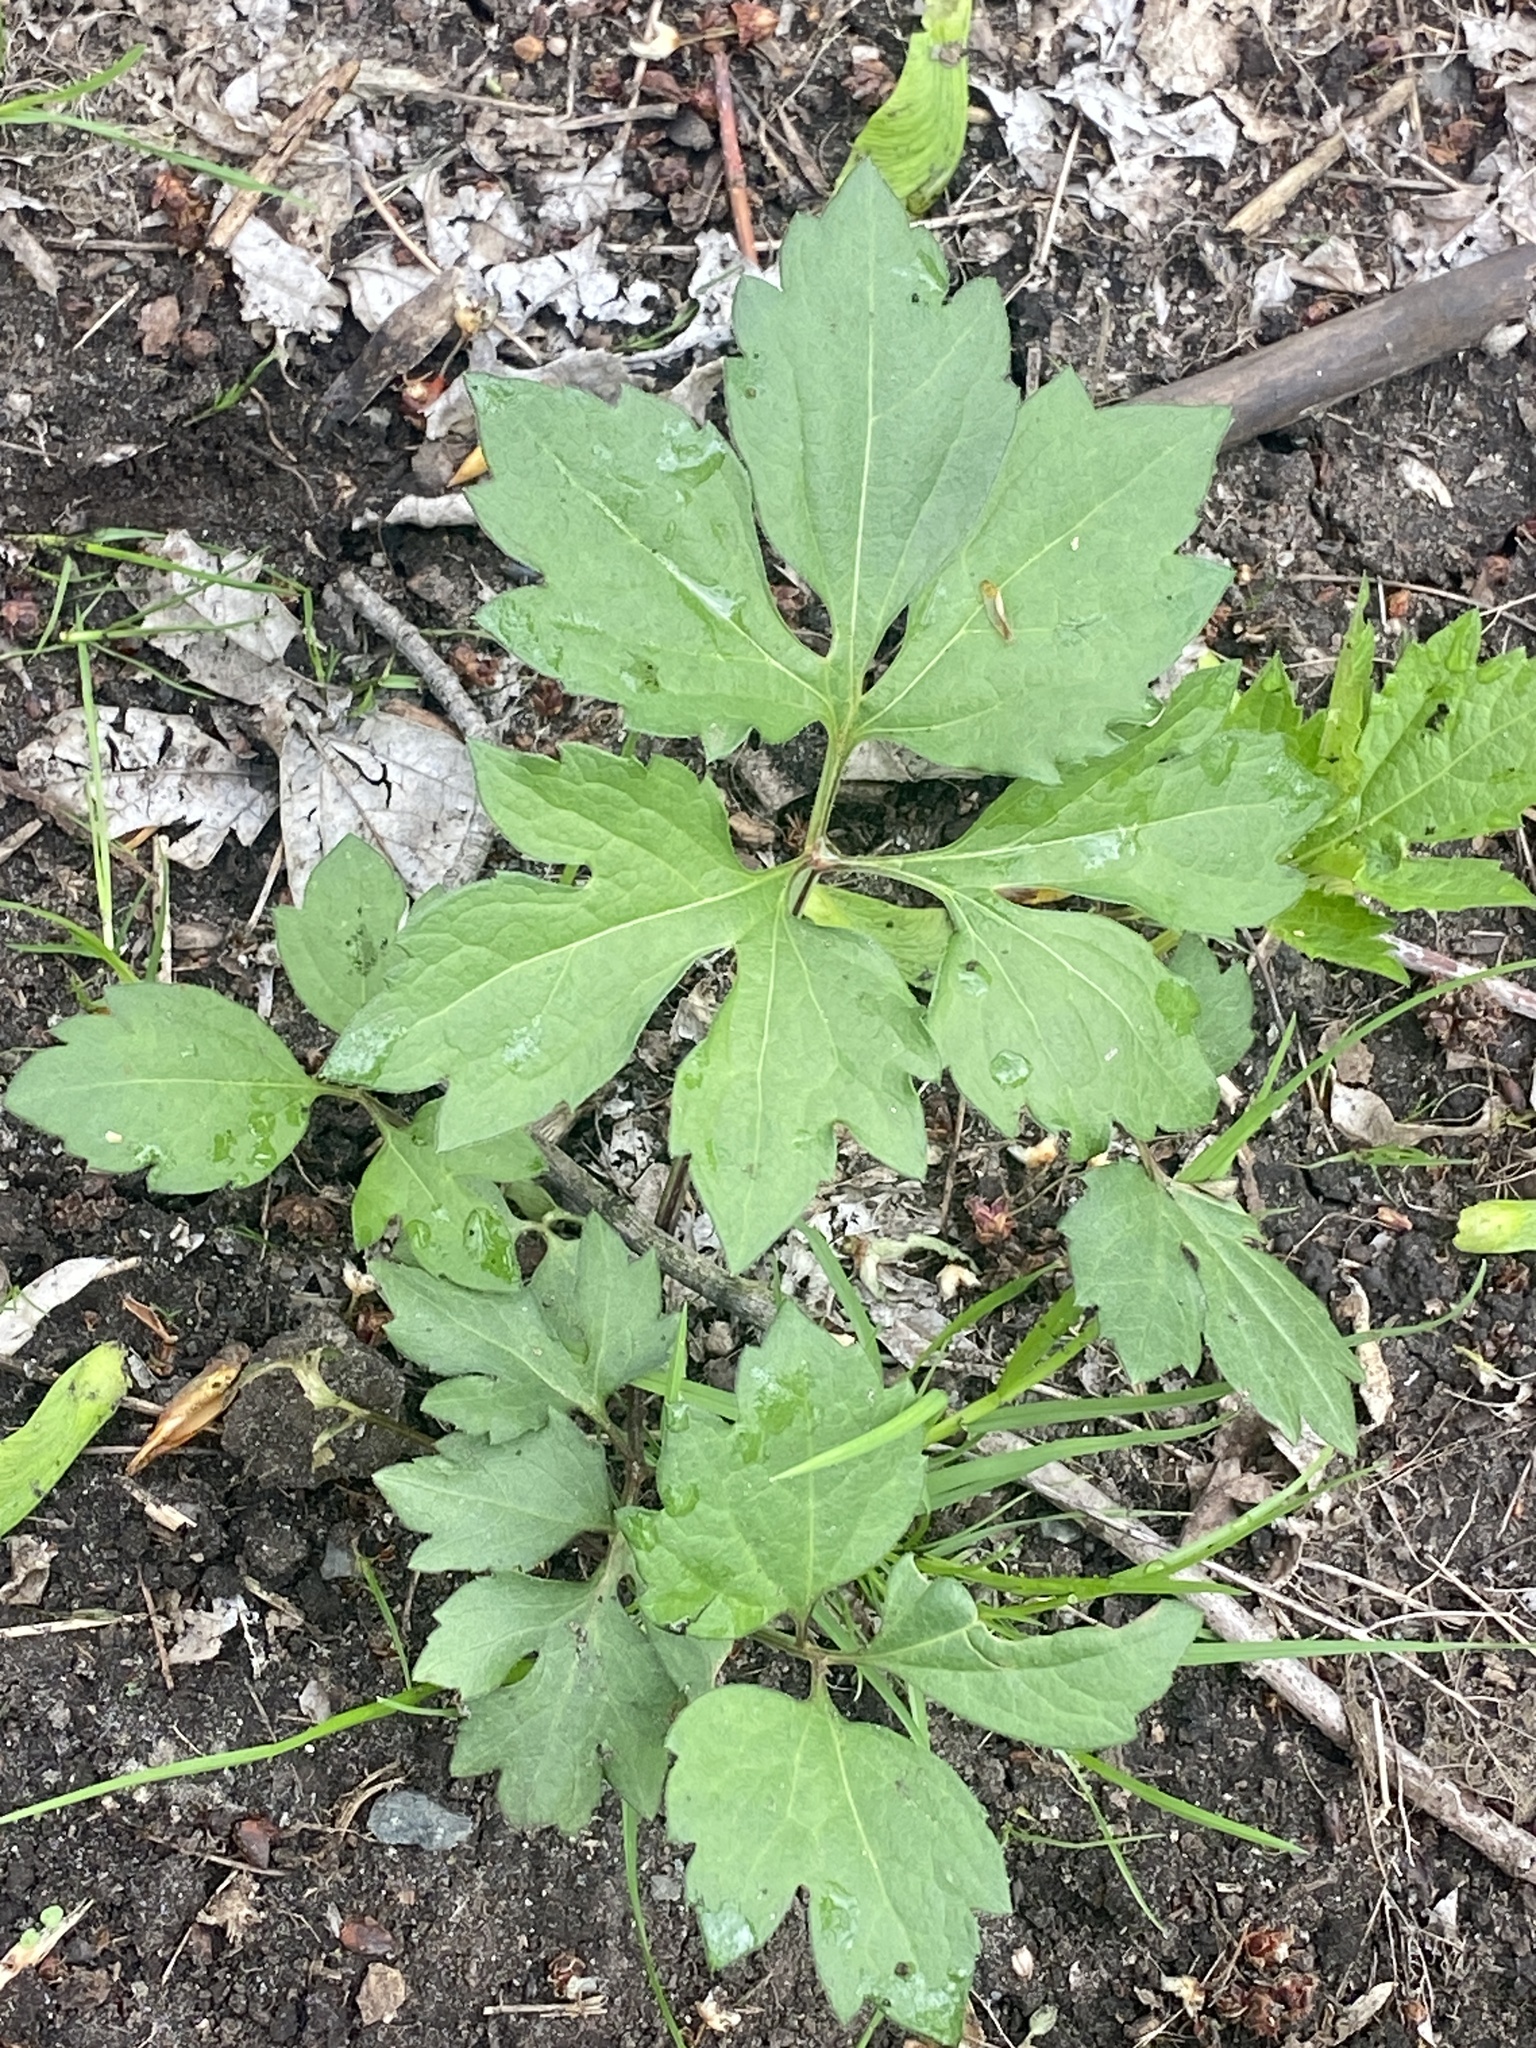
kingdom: Plantae
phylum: Tracheophyta
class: Magnoliopsida
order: Asterales
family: Asteraceae
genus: Rudbeckia
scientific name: Rudbeckia laciniata
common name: Coneflower
